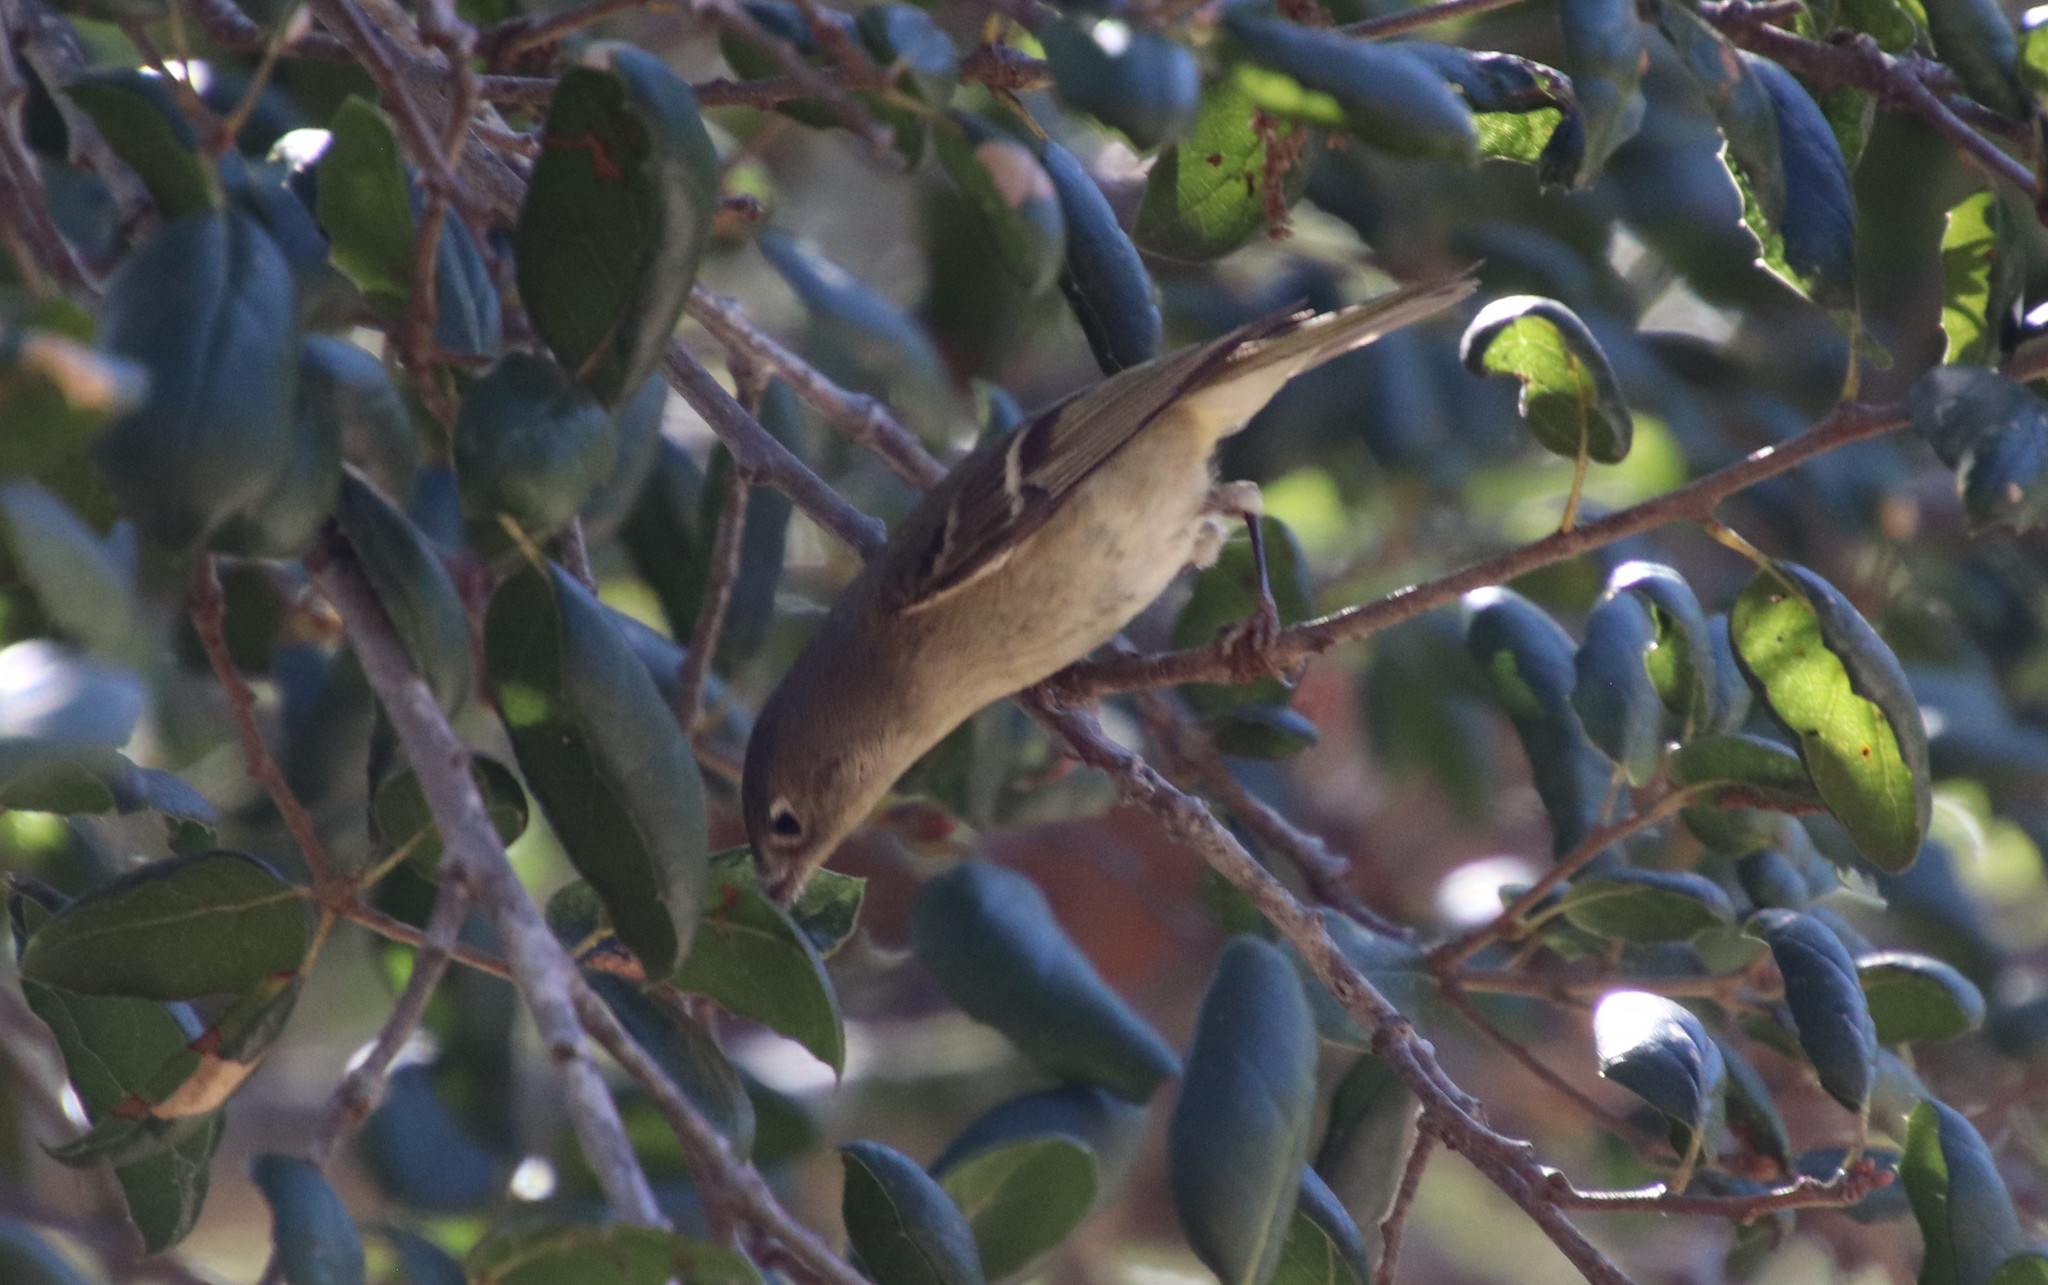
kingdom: Animalia
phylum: Chordata
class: Aves
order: Passeriformes
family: Regulidae
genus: Regulus
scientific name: Regulus calendula
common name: Ruby-crowned kinglet
